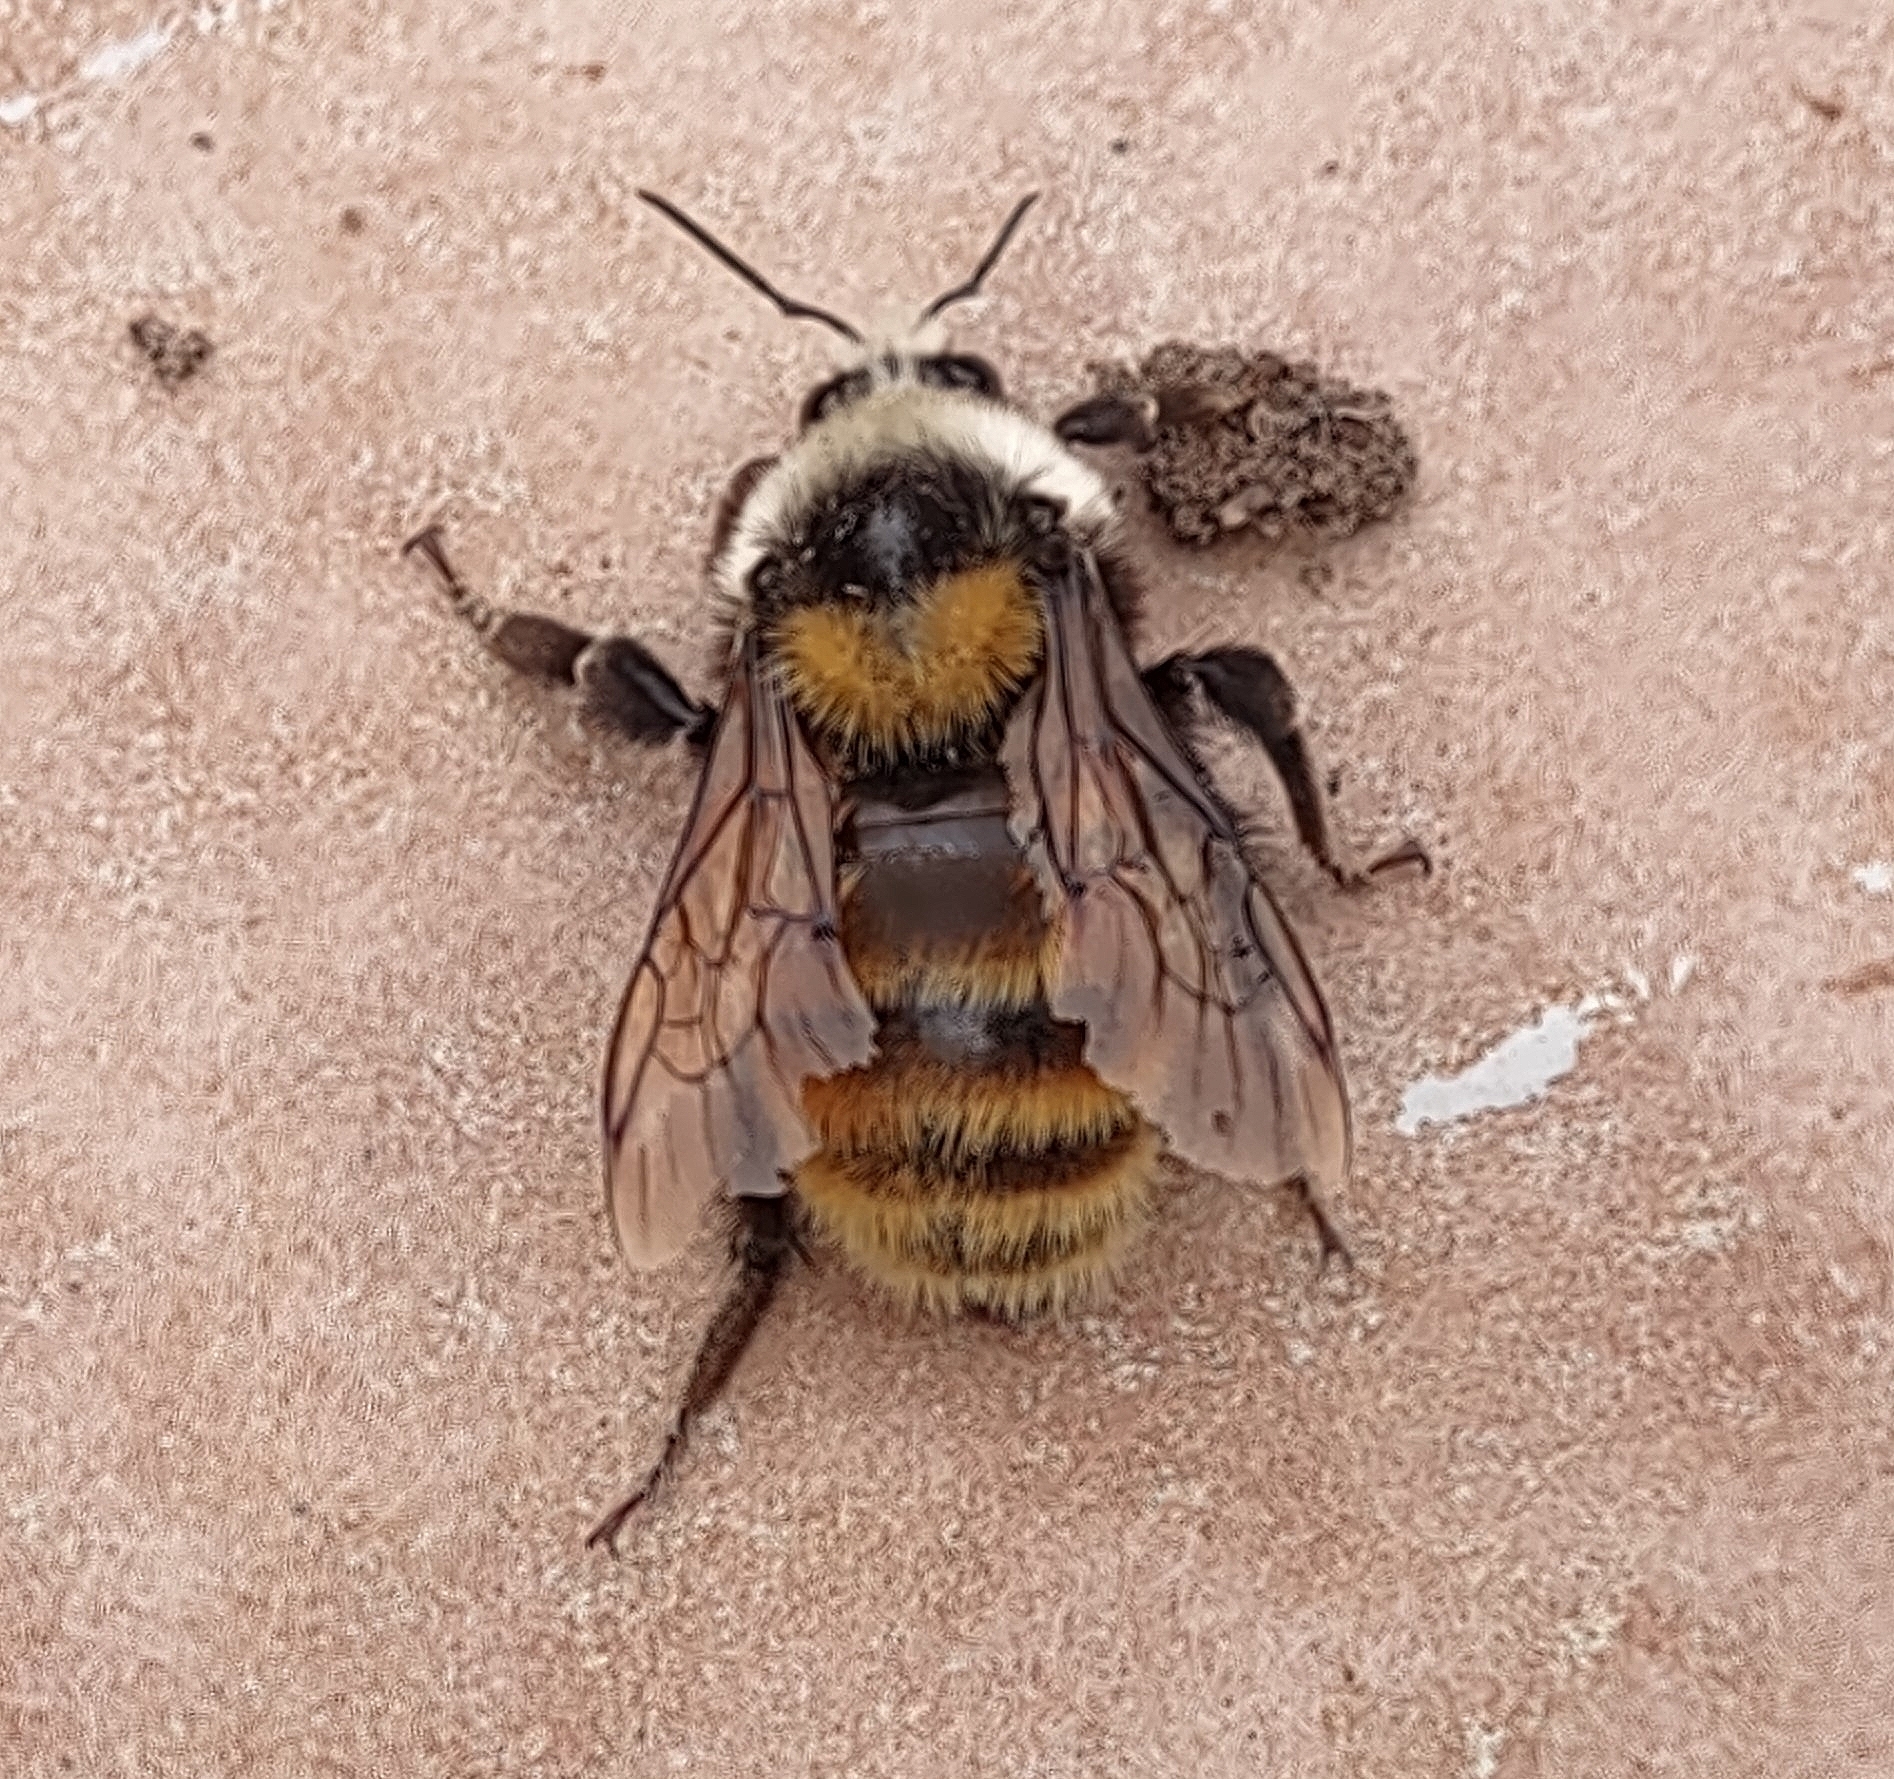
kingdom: Animalia
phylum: Arthropoda
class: Insecta
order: Hymenoptera
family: Apidae
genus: Bombus
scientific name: Bombus appositus
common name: White-shouldered bumble bee
